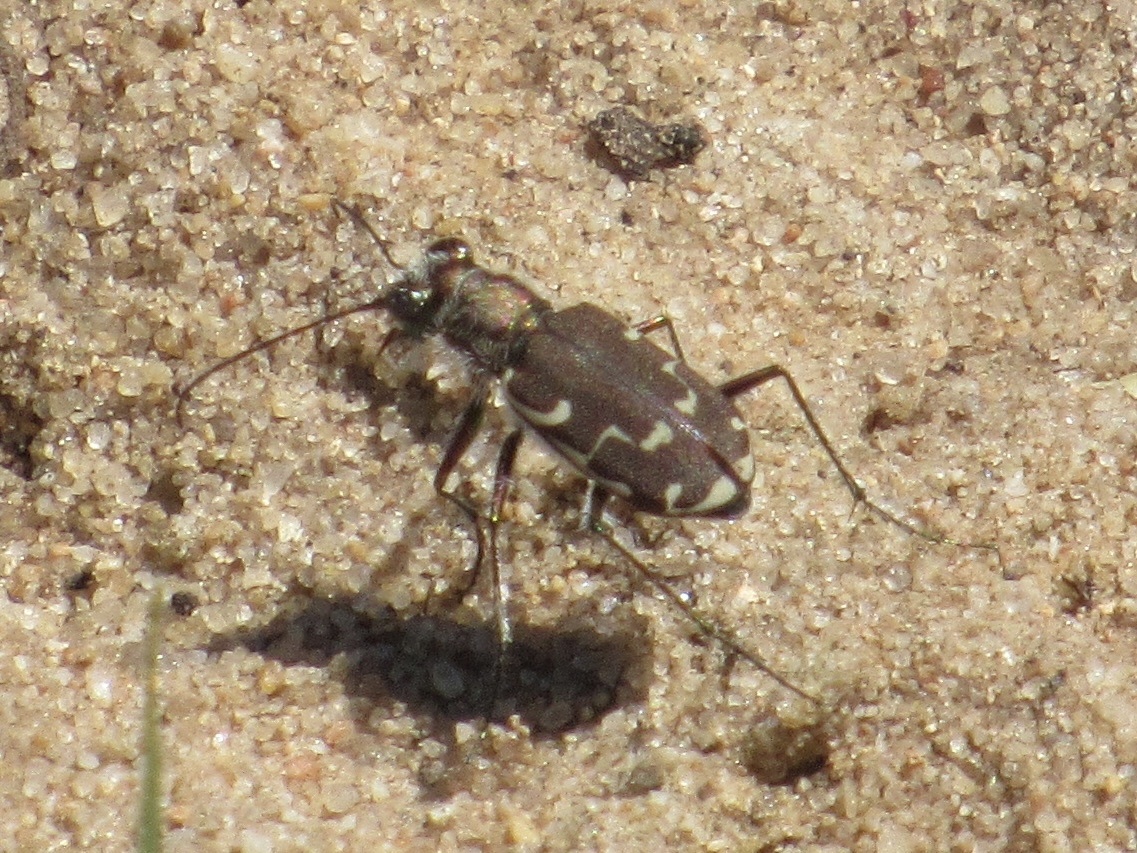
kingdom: Animalia
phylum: Arthropoda
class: Insecta
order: Coleoptera
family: Carabidae
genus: Cicindela
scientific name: Cicindela repanda
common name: Bronzed tiger beetle
